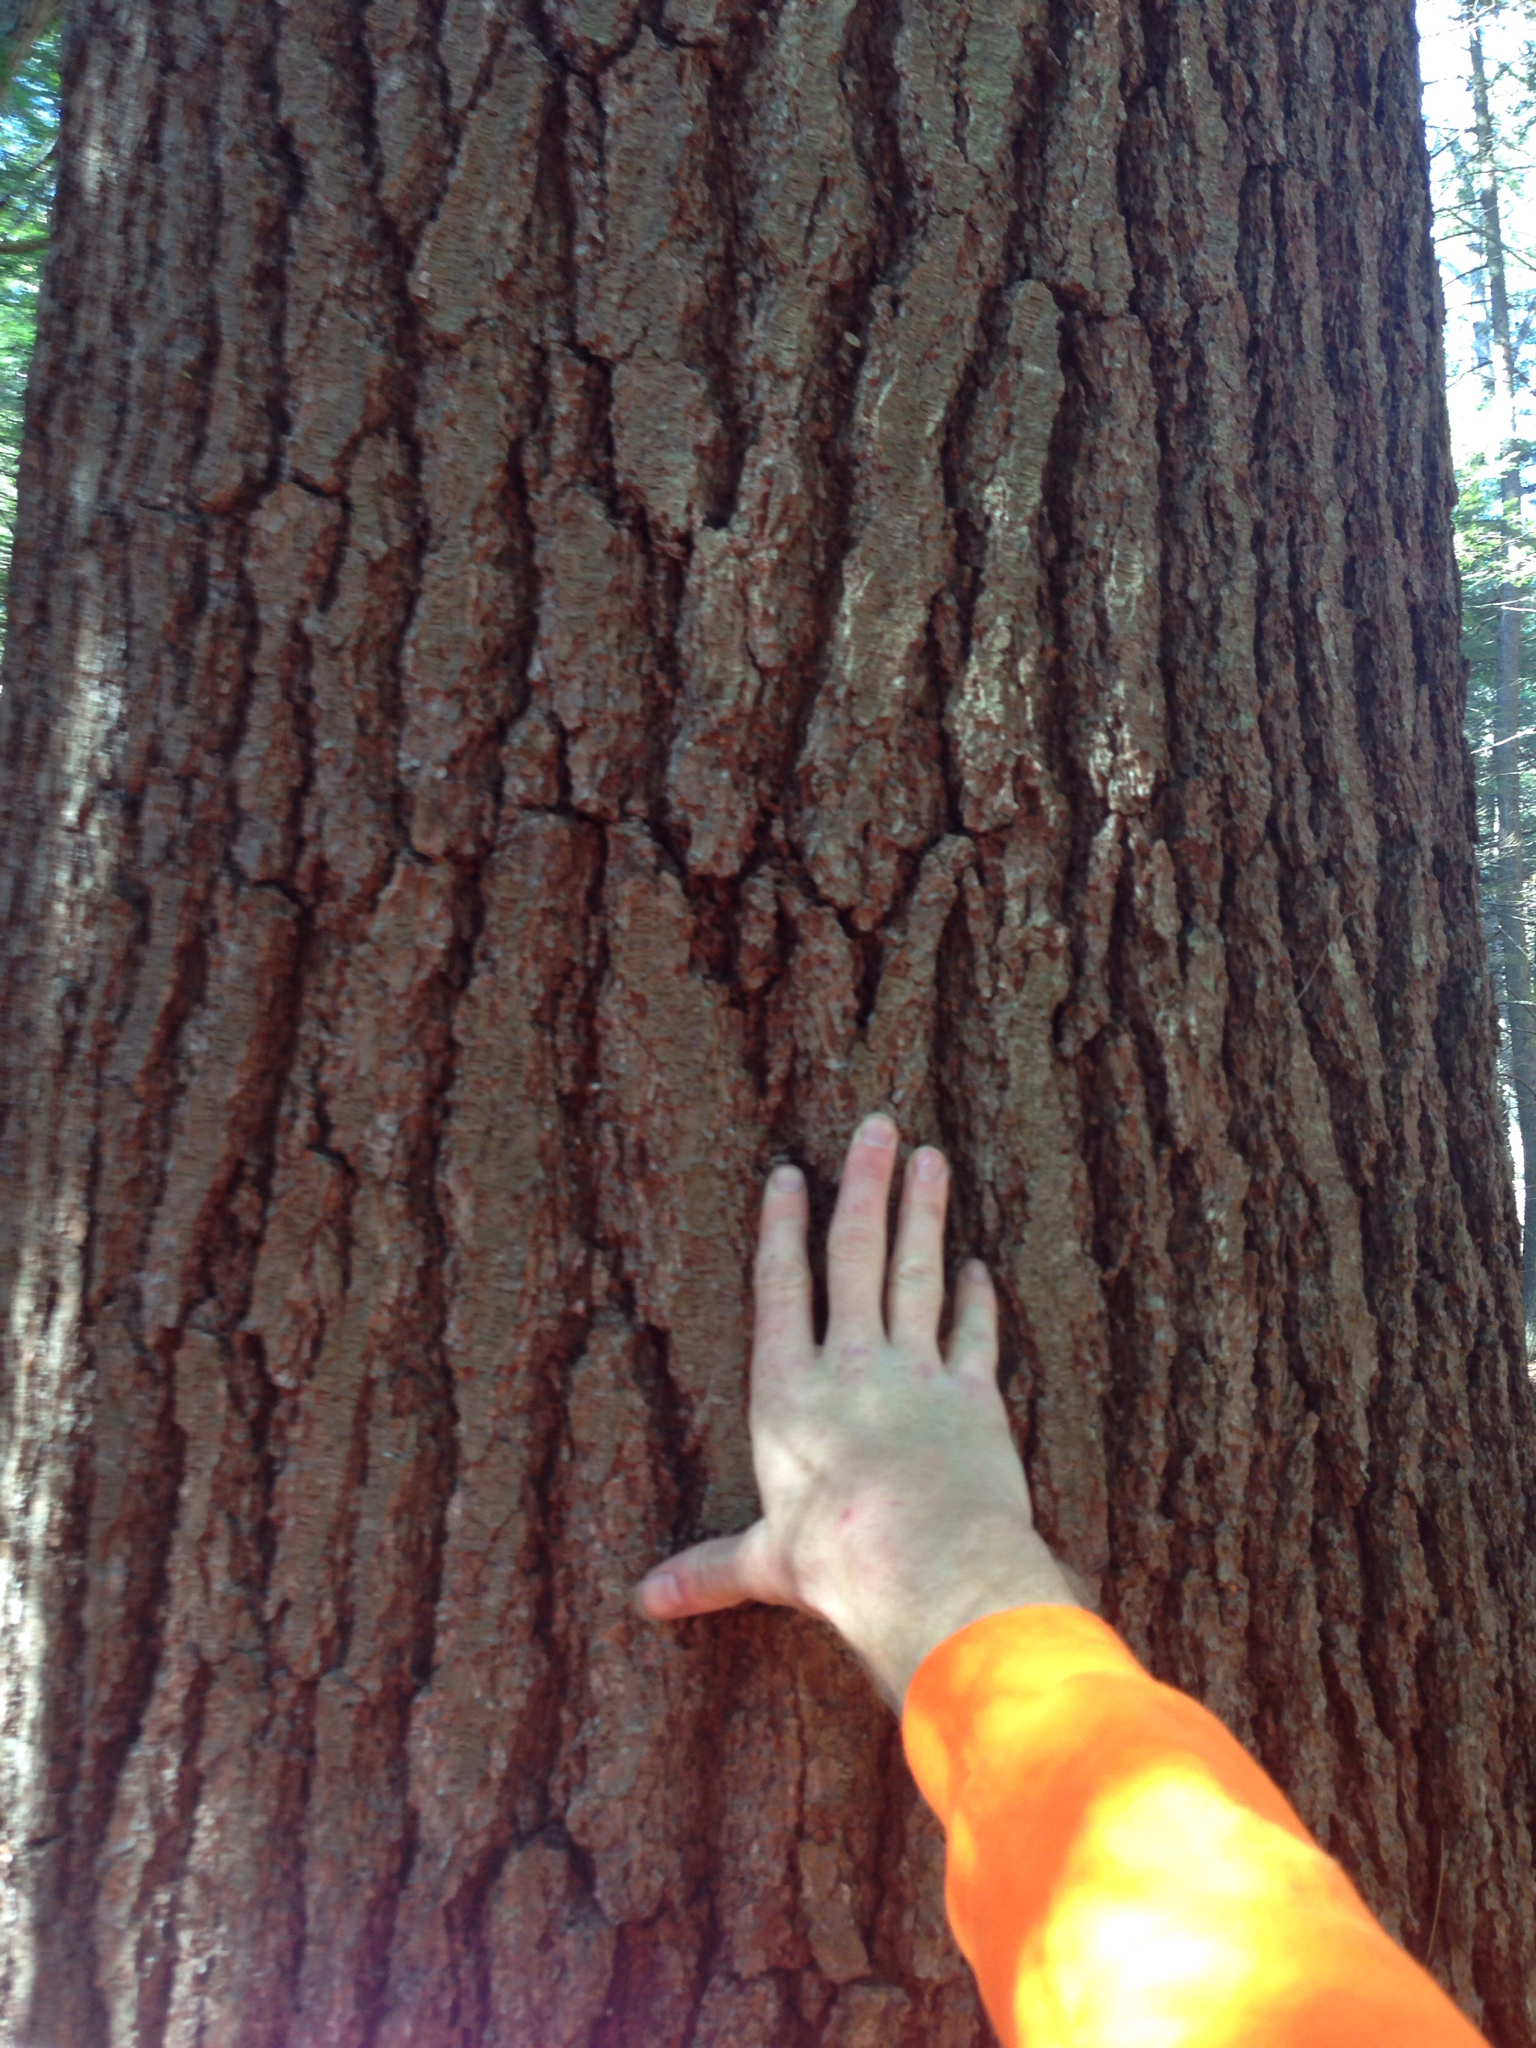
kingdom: Plantae
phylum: Tracheophyta
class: Pinopsida
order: Pinales
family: Pinaceae
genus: Pinus
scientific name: Pinus strobus
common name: Weymouth pine
